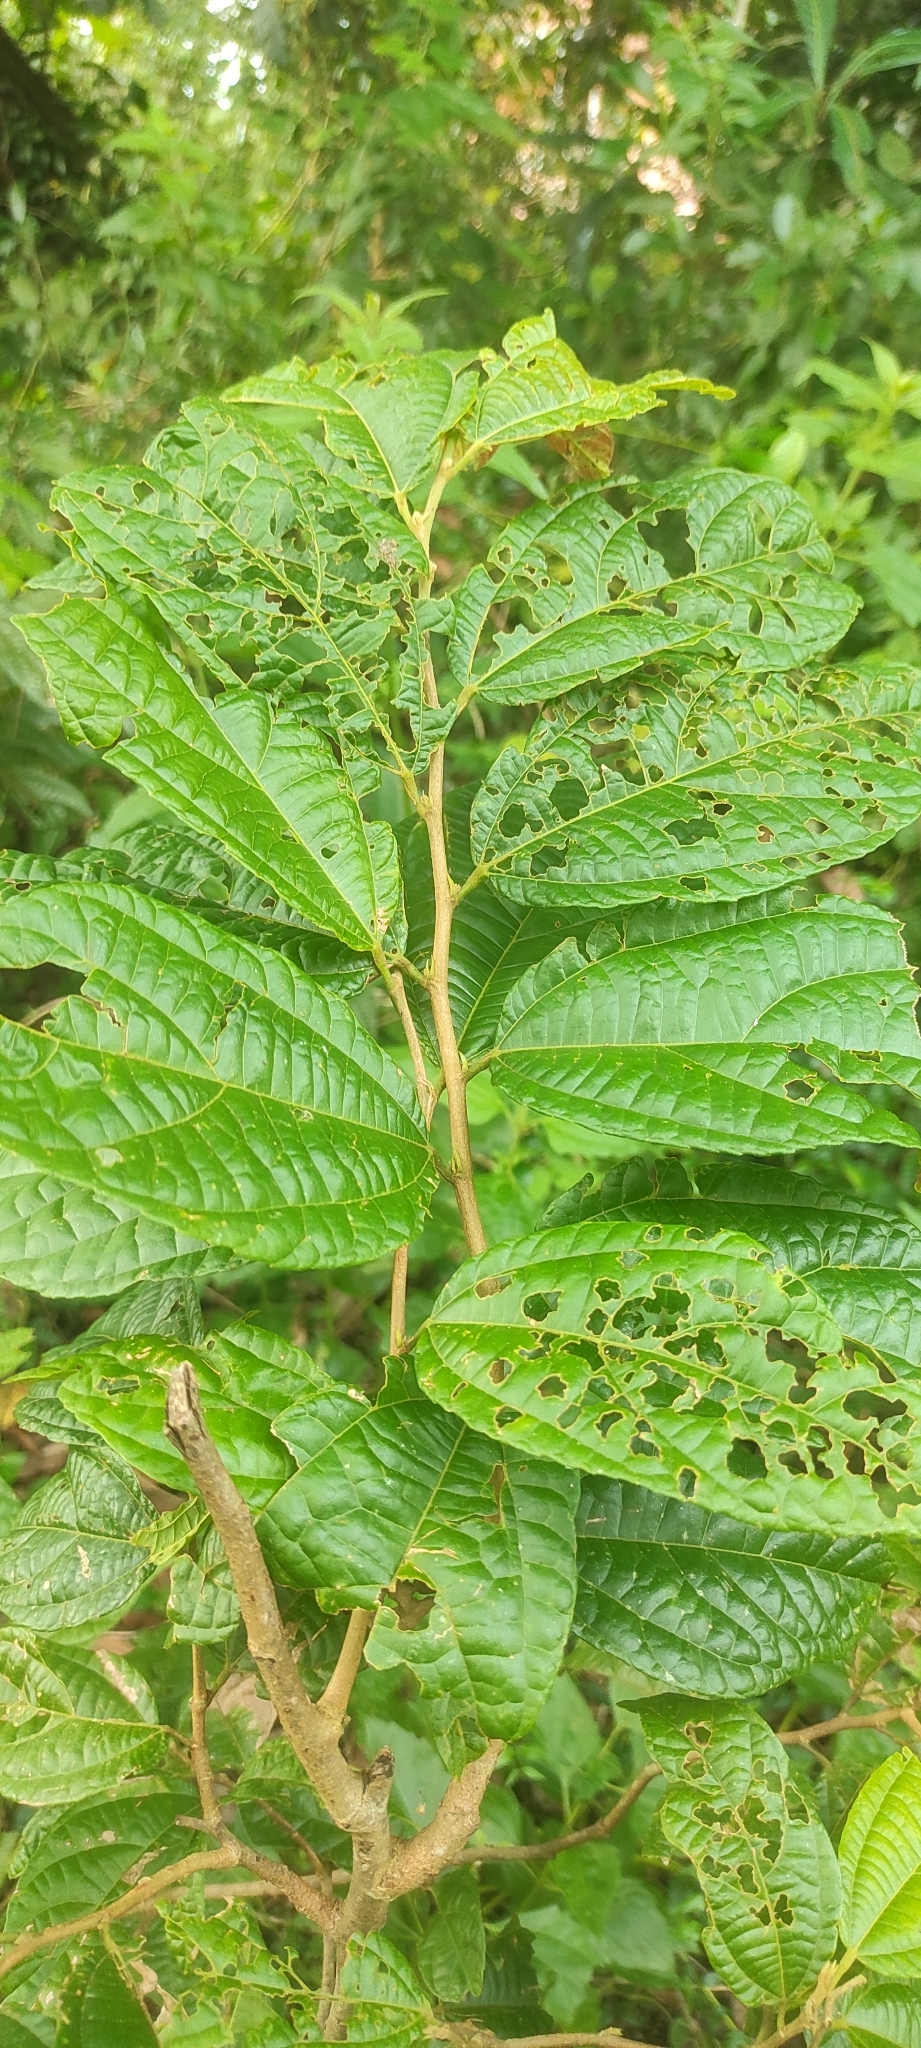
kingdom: Plantae
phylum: Tracheophyta
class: Magnoliopsida
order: Malvales
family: Malvaceae
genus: Microcos
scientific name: Microcos paniculata
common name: Microcos
